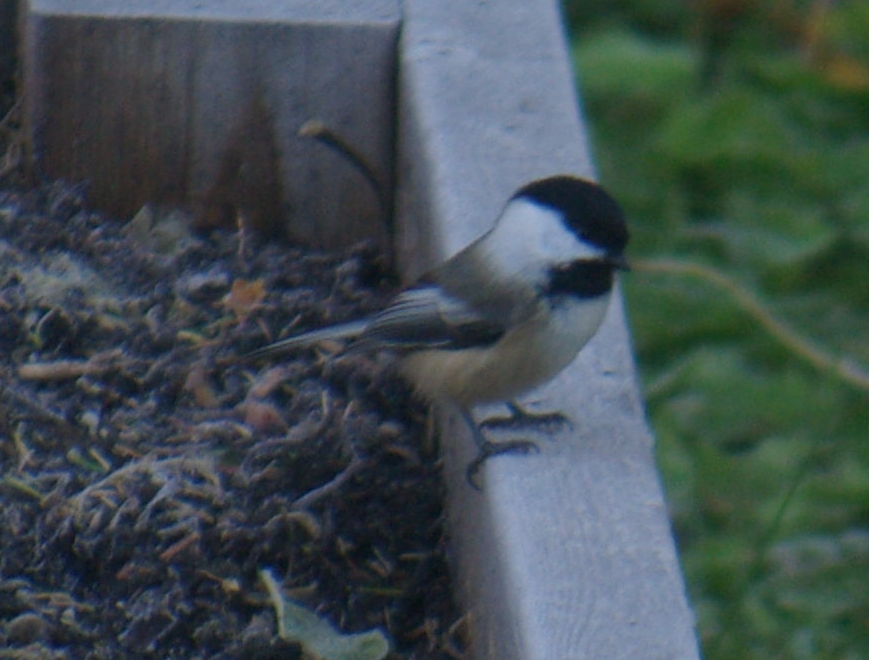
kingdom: Animalia
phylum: Chordata
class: Aves
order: Passeriformes
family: Paridae
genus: Poecile
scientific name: Poecile atricapillus
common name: Black-capped chickadee
